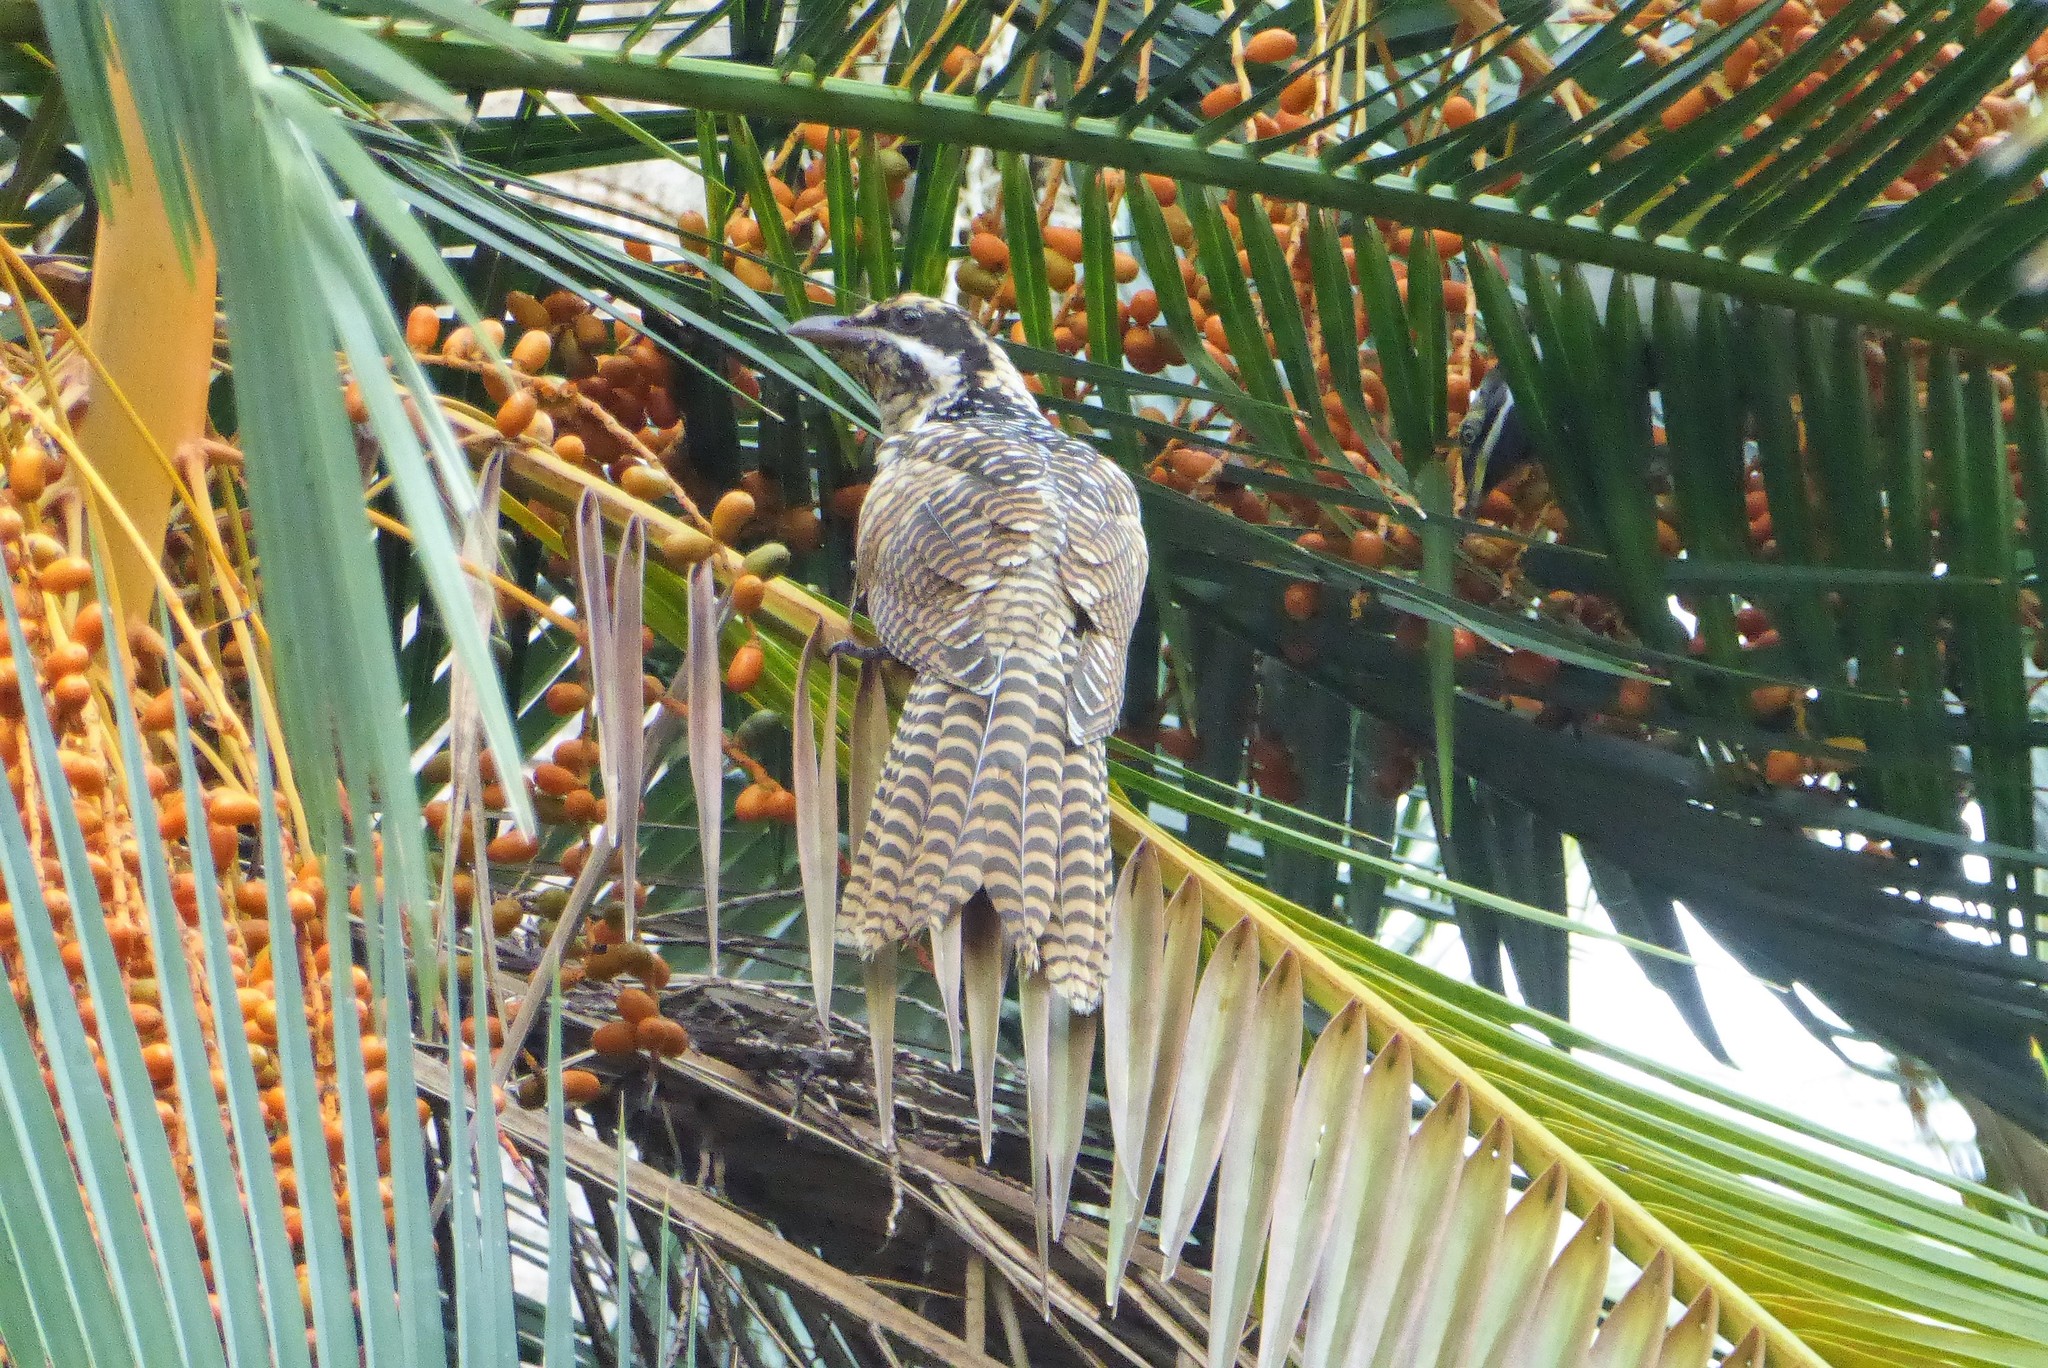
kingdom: Animalia
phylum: Chordata
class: Aves
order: Cuculiformes
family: Cuculidae
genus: Eudynamys
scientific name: Eudynamys orientalis
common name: Pacific koel
